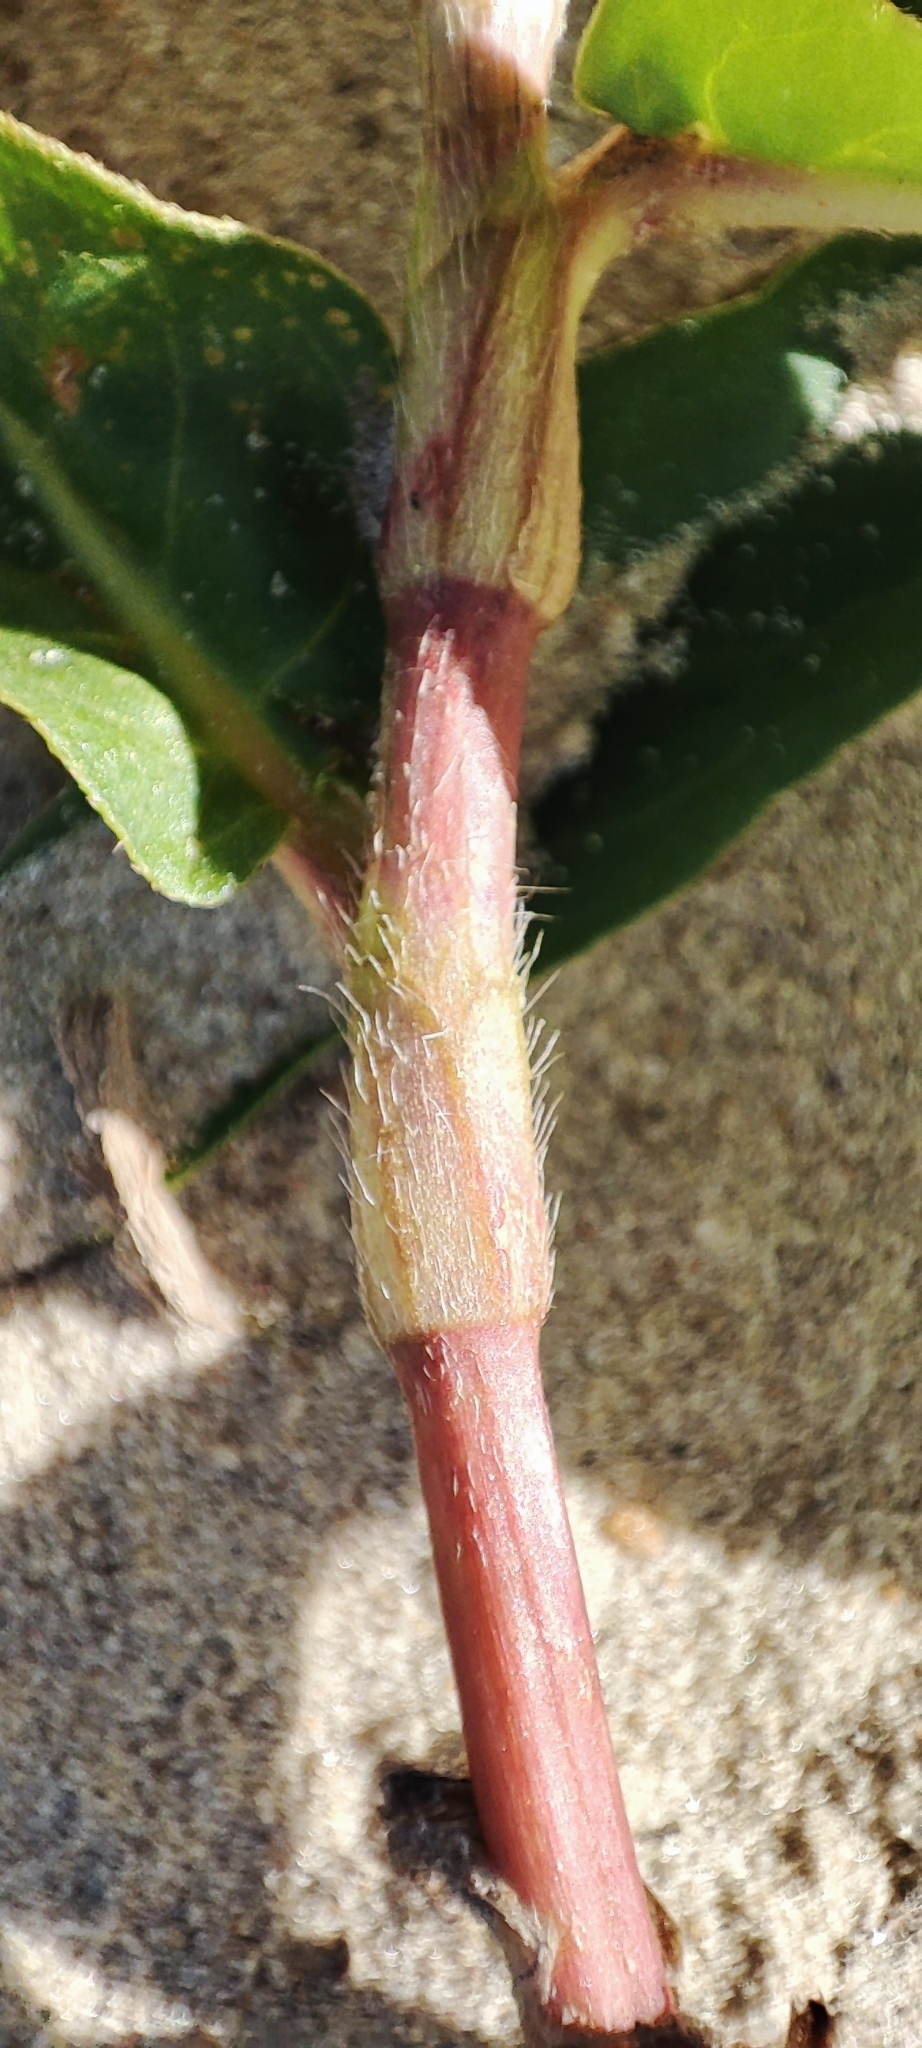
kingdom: Plantae
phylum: Tracheophyta
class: Magnoliopsida
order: Caryophyllales
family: Polygonaceae
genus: Persicaria
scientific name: Persicaria amphibia
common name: Amphibious bistort
